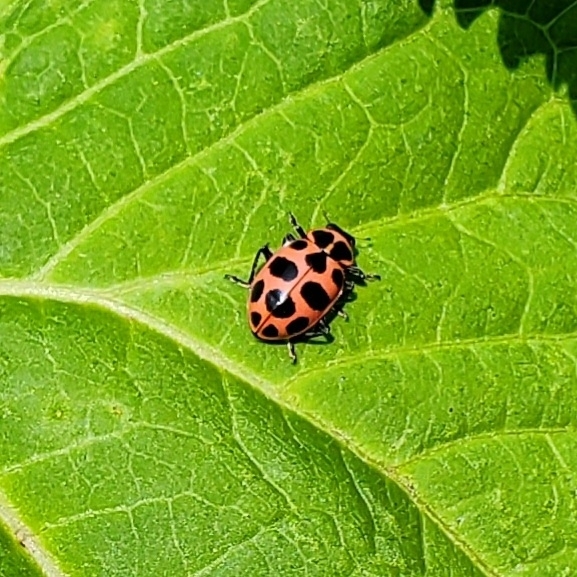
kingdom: Animalia
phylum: Arthropoda
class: Insecta
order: Coleoptera
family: Coccinellidae
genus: Coleomegilla
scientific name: Coleomegilla maculata
